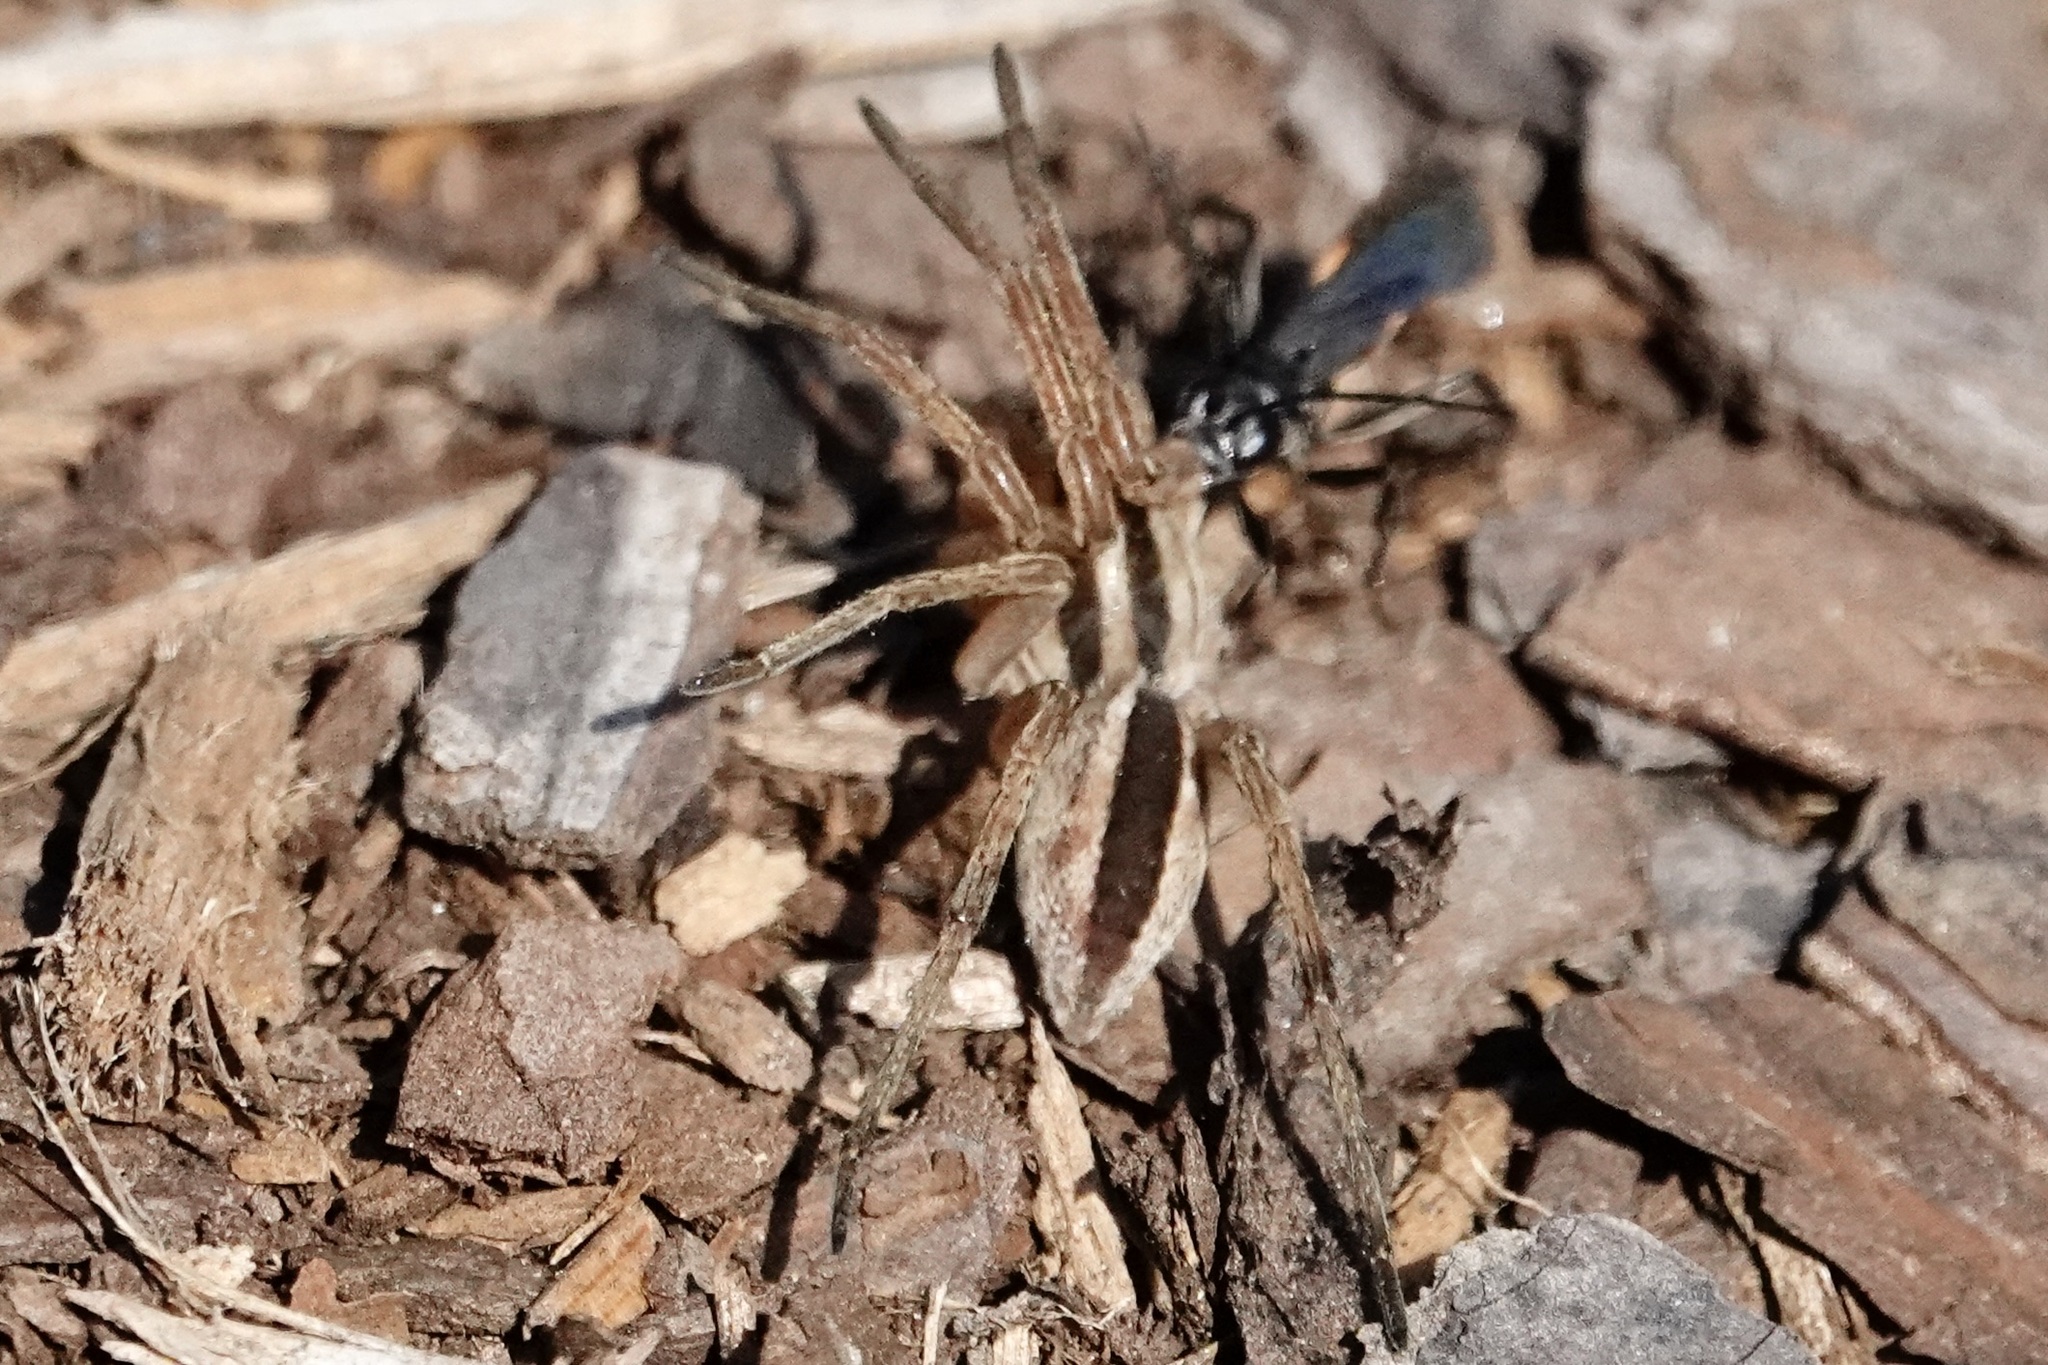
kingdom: Animalia
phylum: Arthropoda
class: Arachnida
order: Araneae
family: Lycosidae
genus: Rabidosa
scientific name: Rabidosa punctulata
